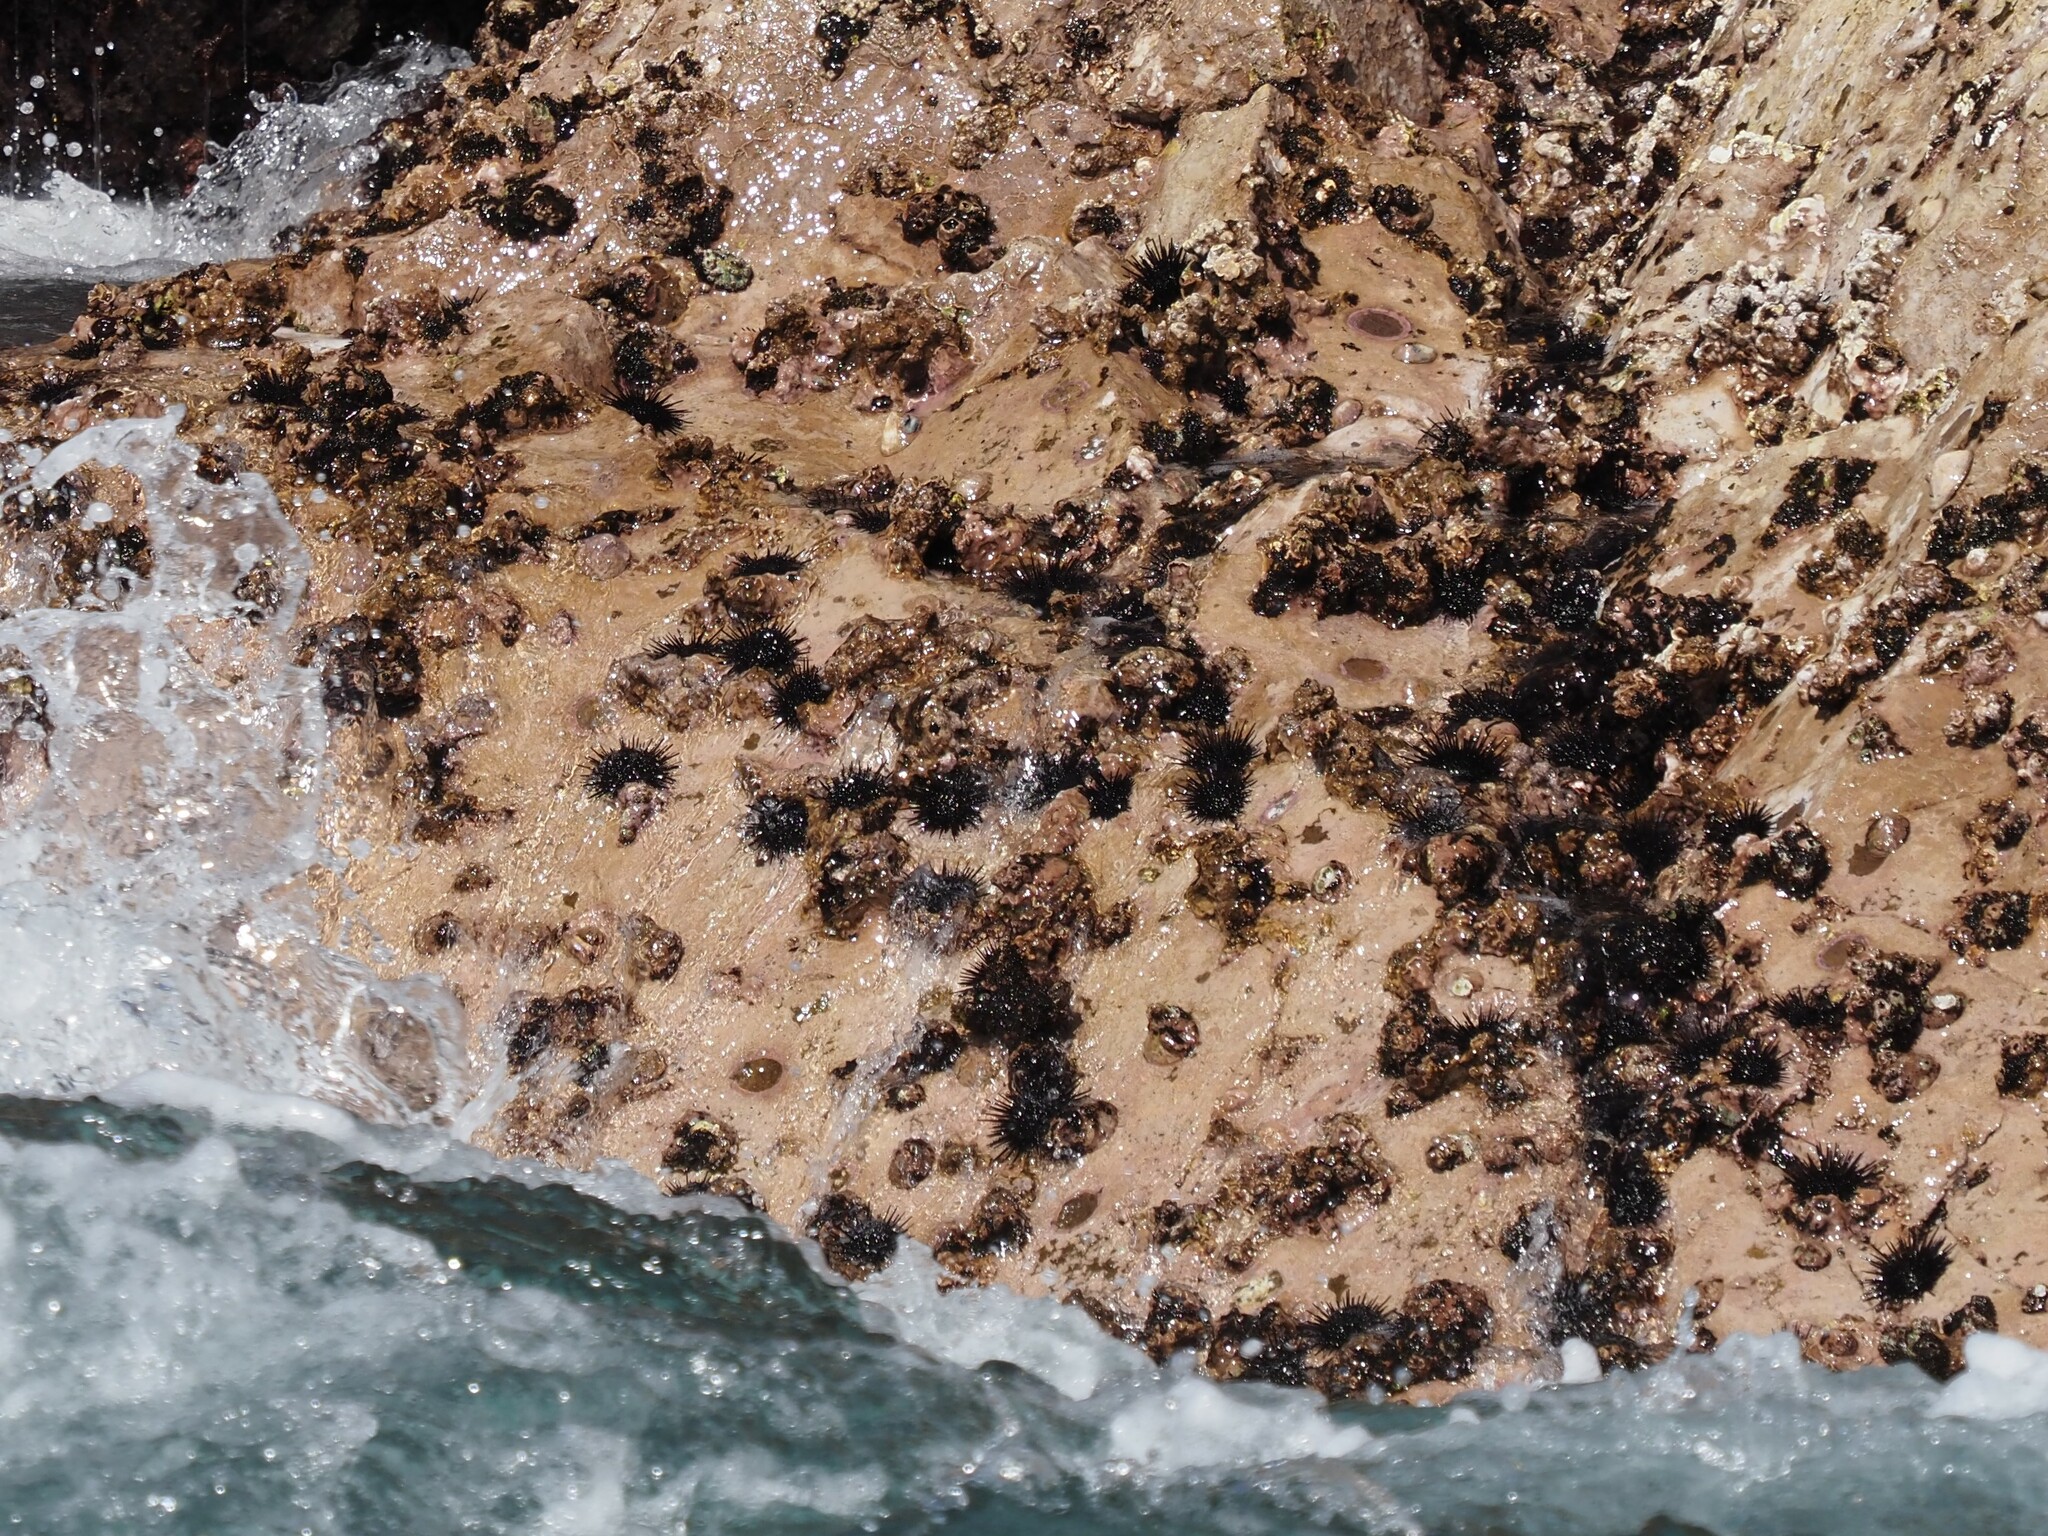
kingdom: Animalia
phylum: Echinodermata
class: Echinoidea
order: Camarodonta
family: Echinometridae
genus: Echinometra
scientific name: Echinometra vanbrunti
